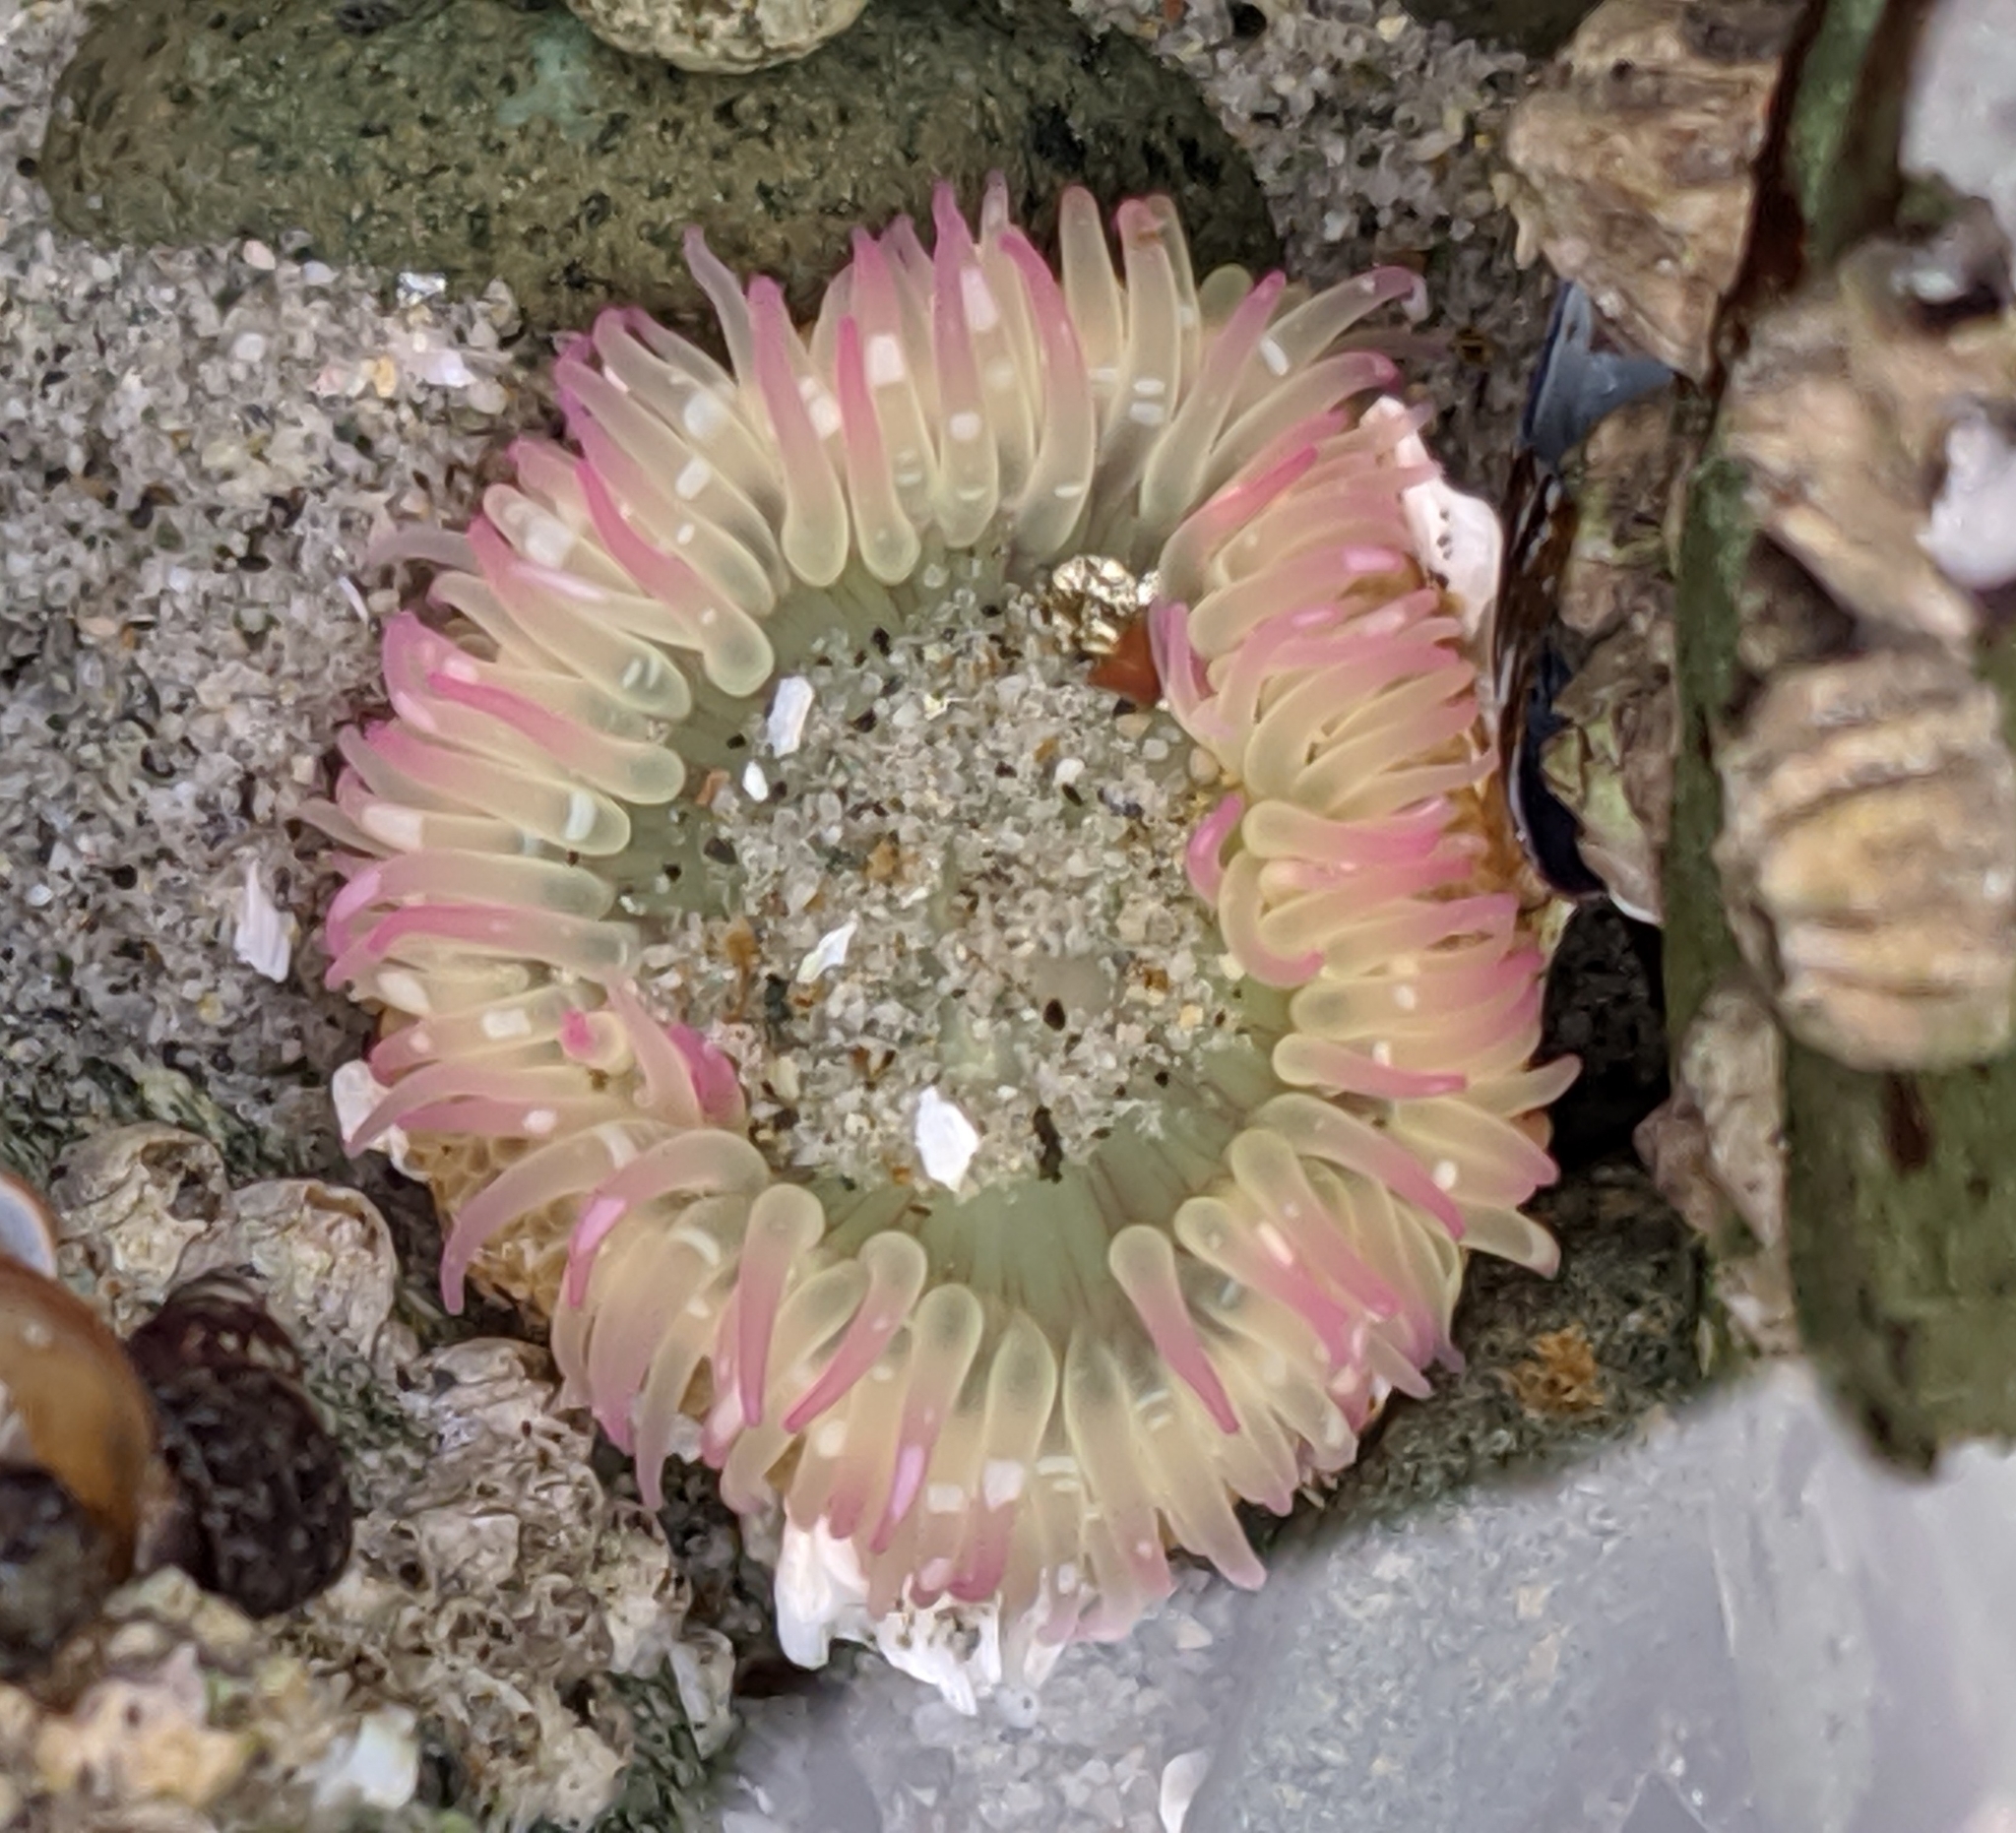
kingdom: Animalia
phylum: Cnidaria
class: Anthozoa
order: Actiniaria
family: Actiniidae
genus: Anthopleura
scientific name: Anthopleura elegantissima
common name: Clonal anemone
